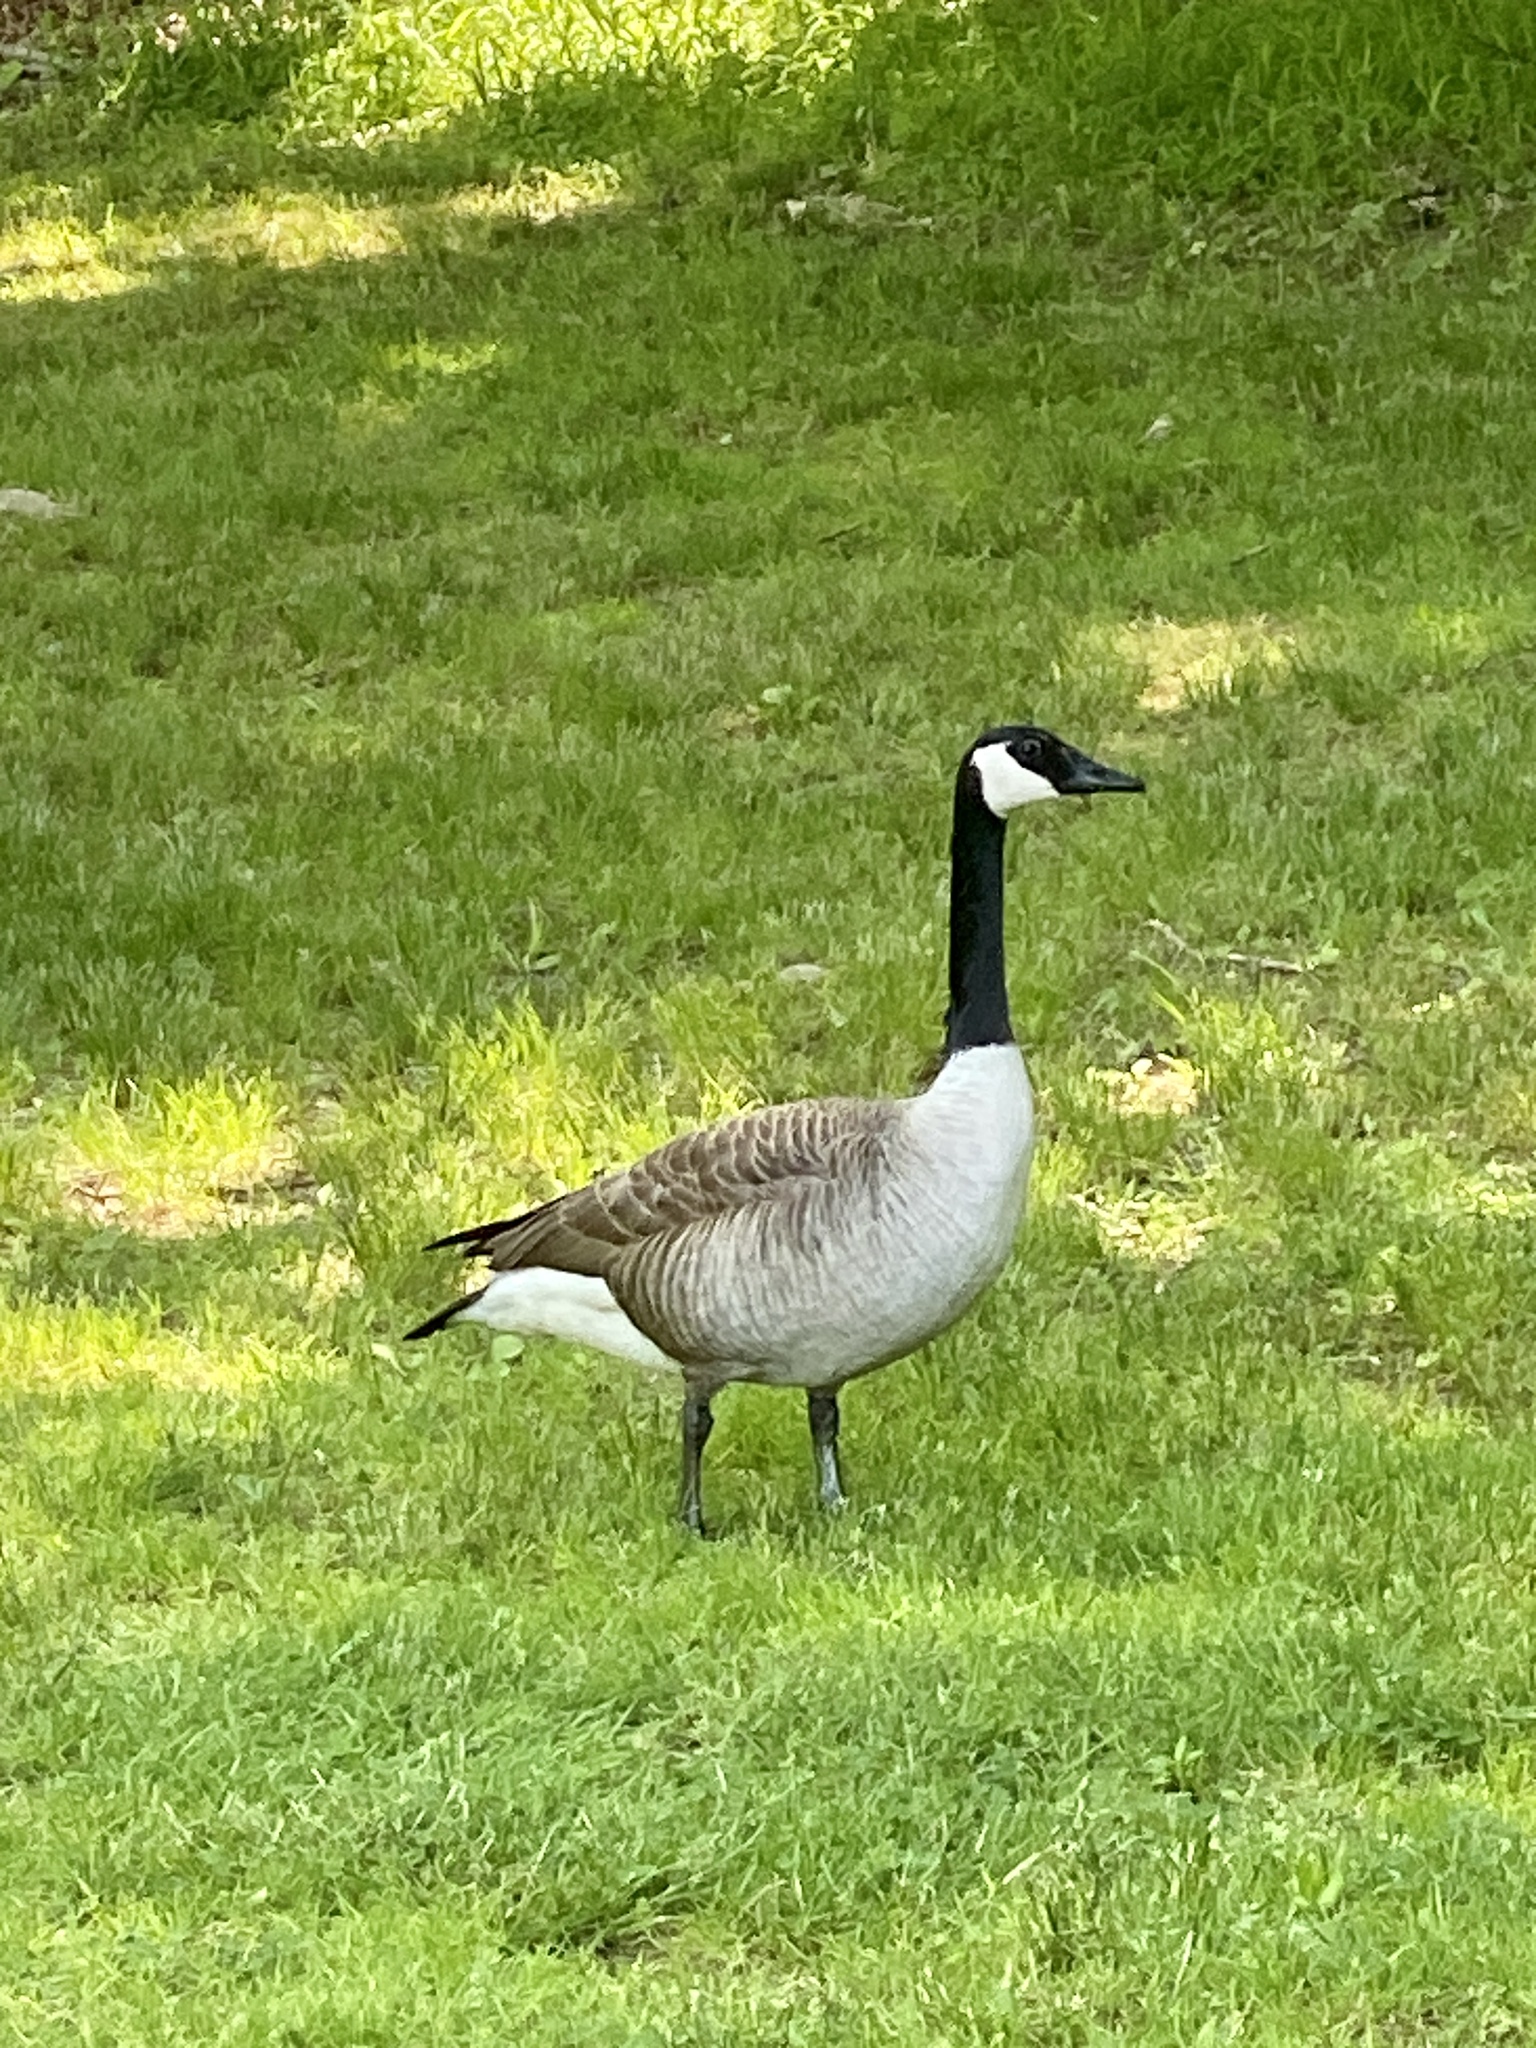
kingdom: Animalia
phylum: Chordata
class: Aves
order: Anseriformes
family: Anatidae
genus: Branta
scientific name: Branta canadensis
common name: Canada goose
